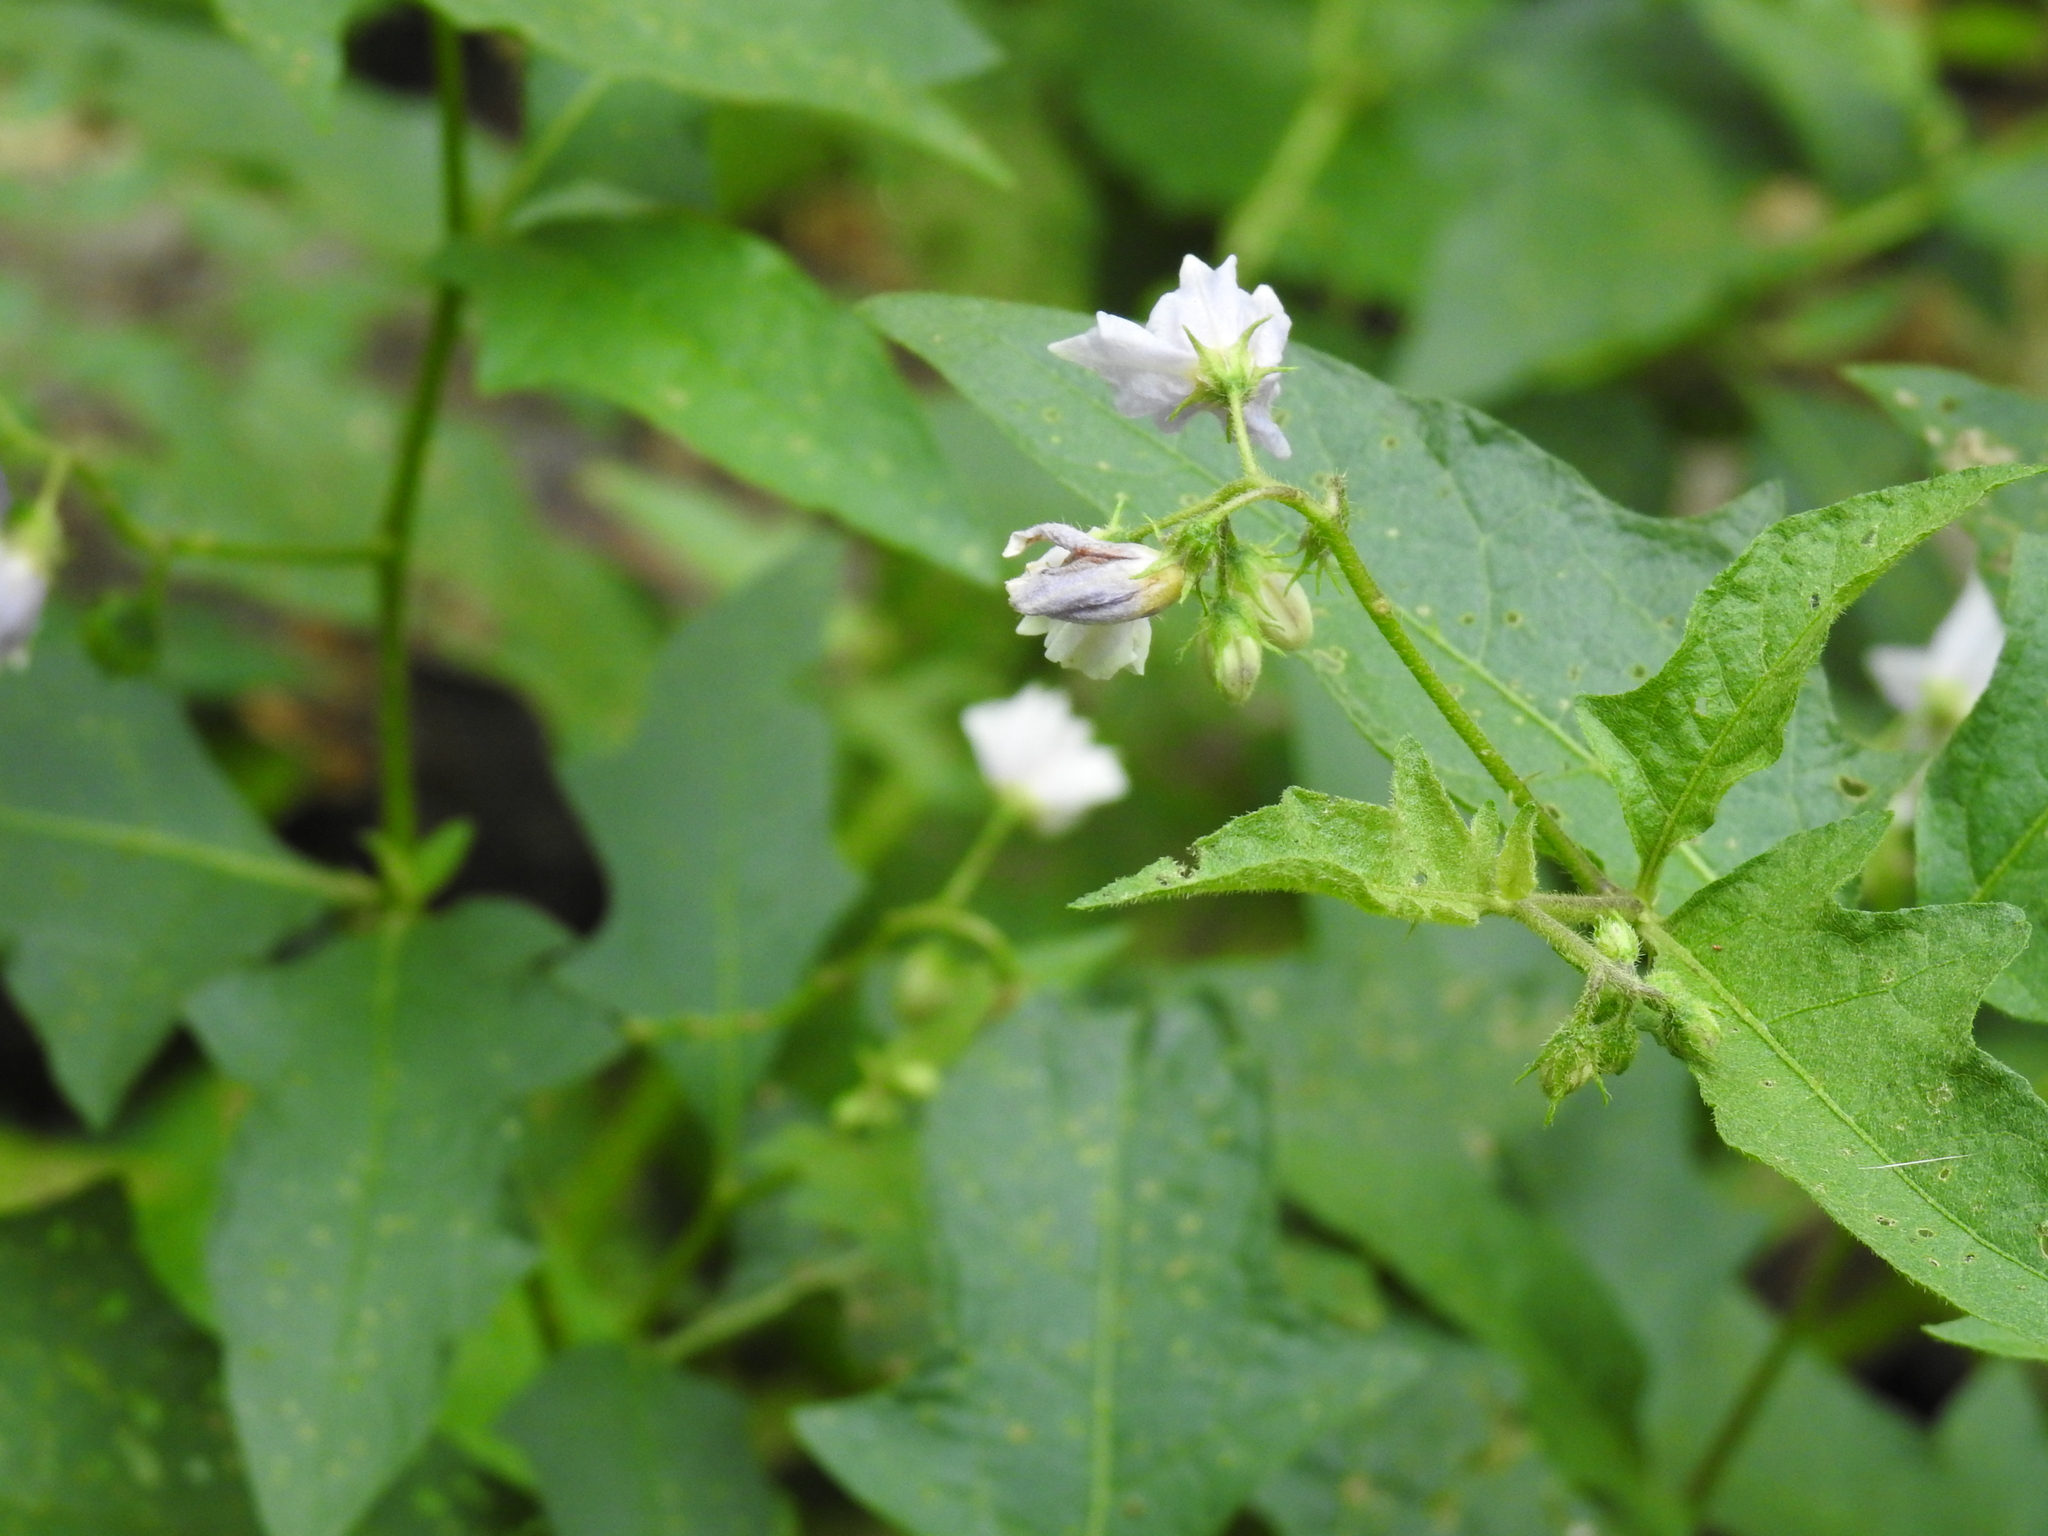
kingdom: Plantae
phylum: Tracheophyta
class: Magnoliopsida
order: Solanales
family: Solanaceae
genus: Solanum
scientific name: Solanum carolinense
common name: Horse-nettle
